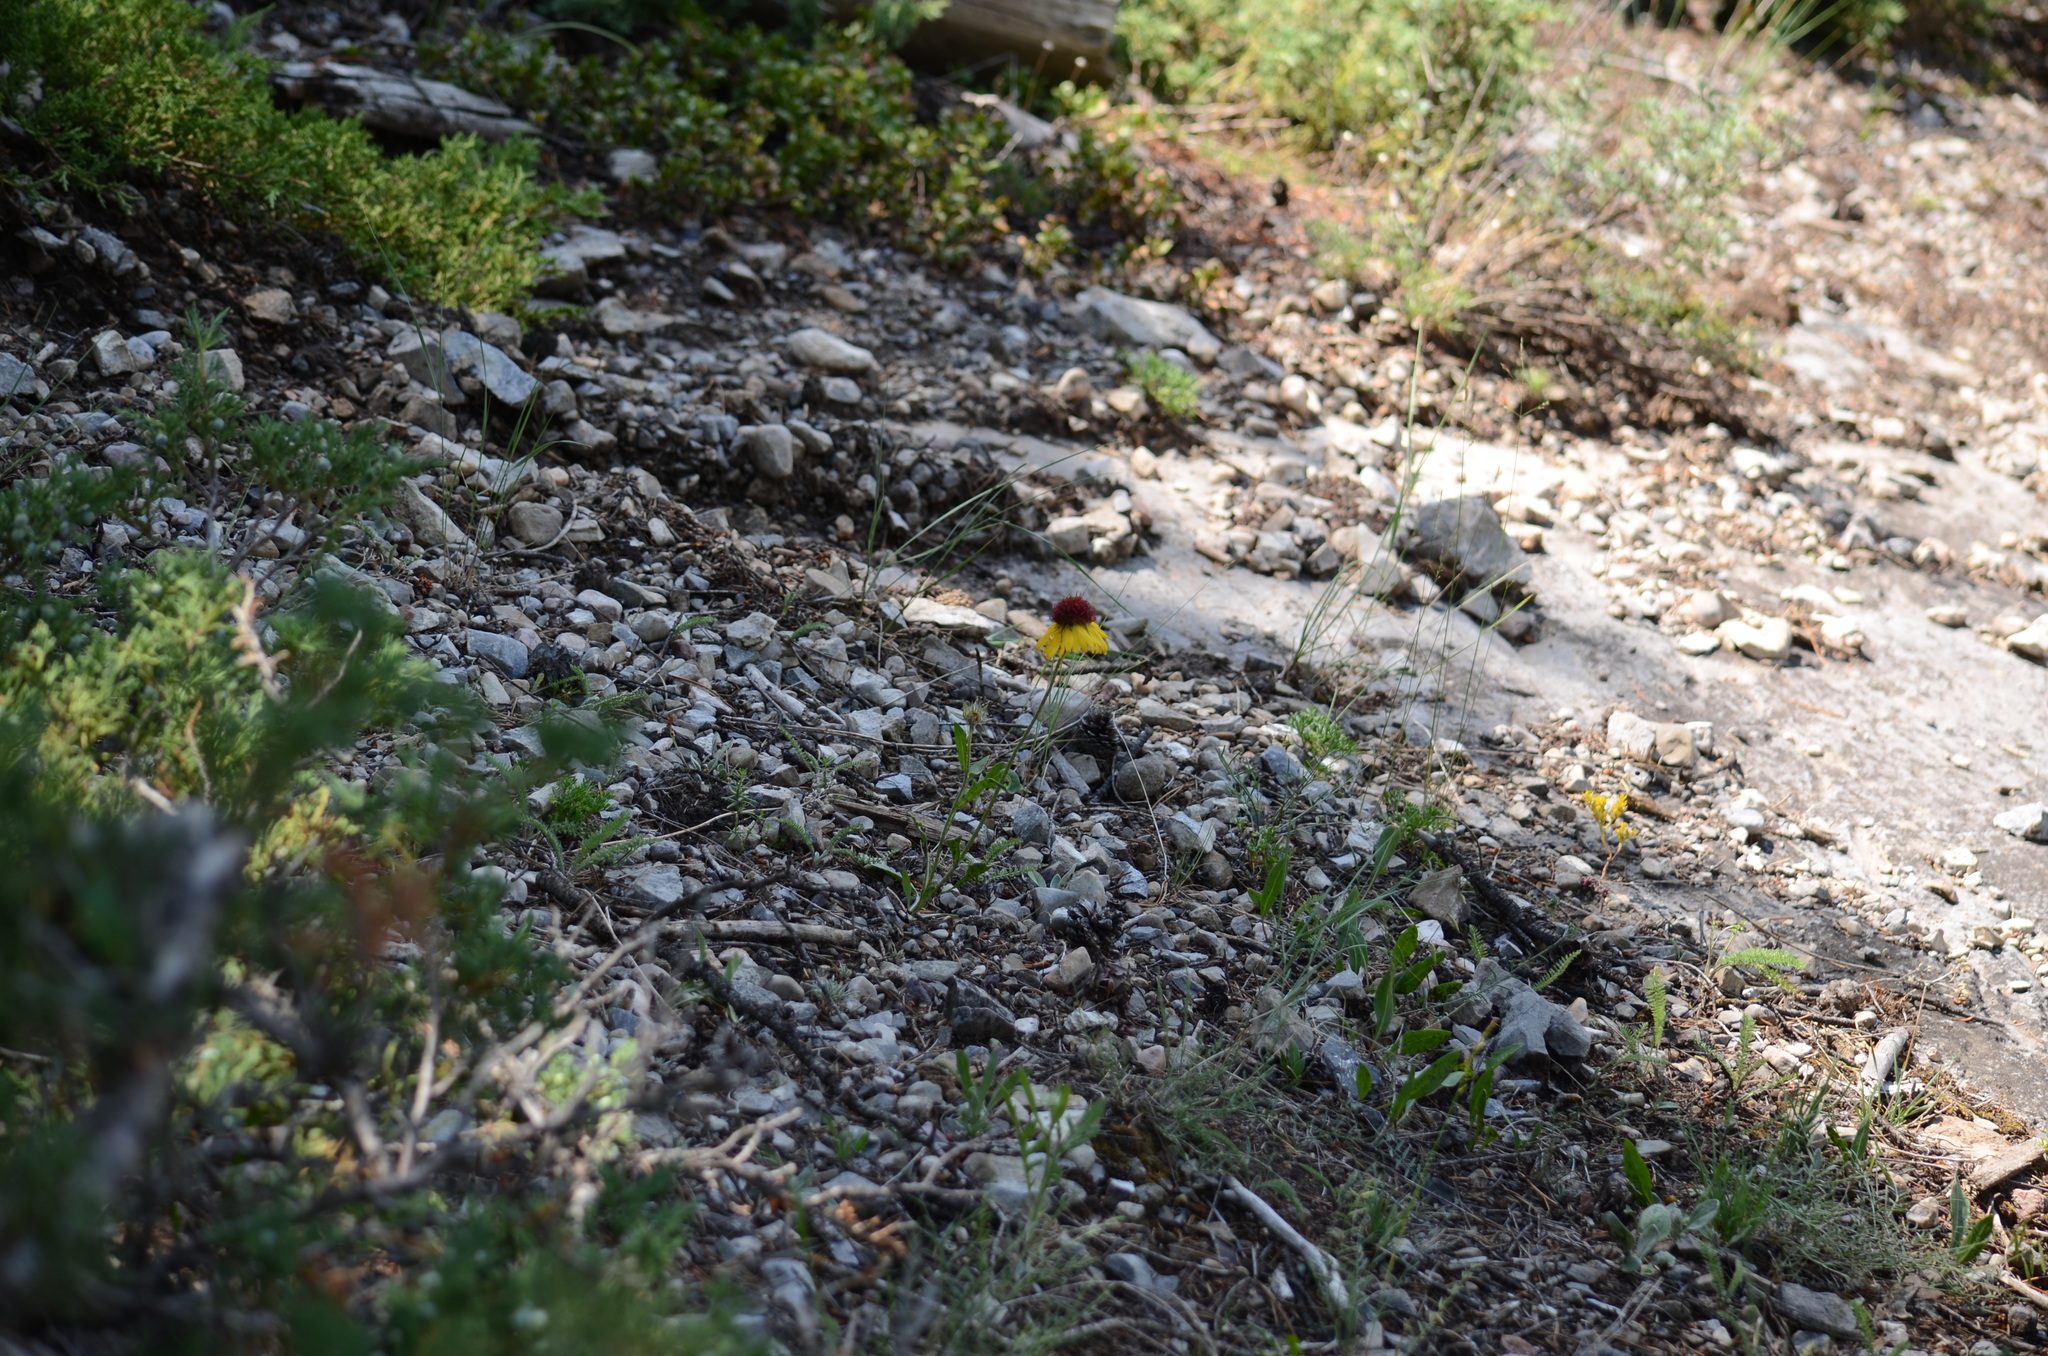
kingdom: Plantae
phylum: Tracheophyta
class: Magnoliopsida
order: Asterales
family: Asteraceae
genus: Gaillardia
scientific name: Gaillardia aristata
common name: Blanket-flower
